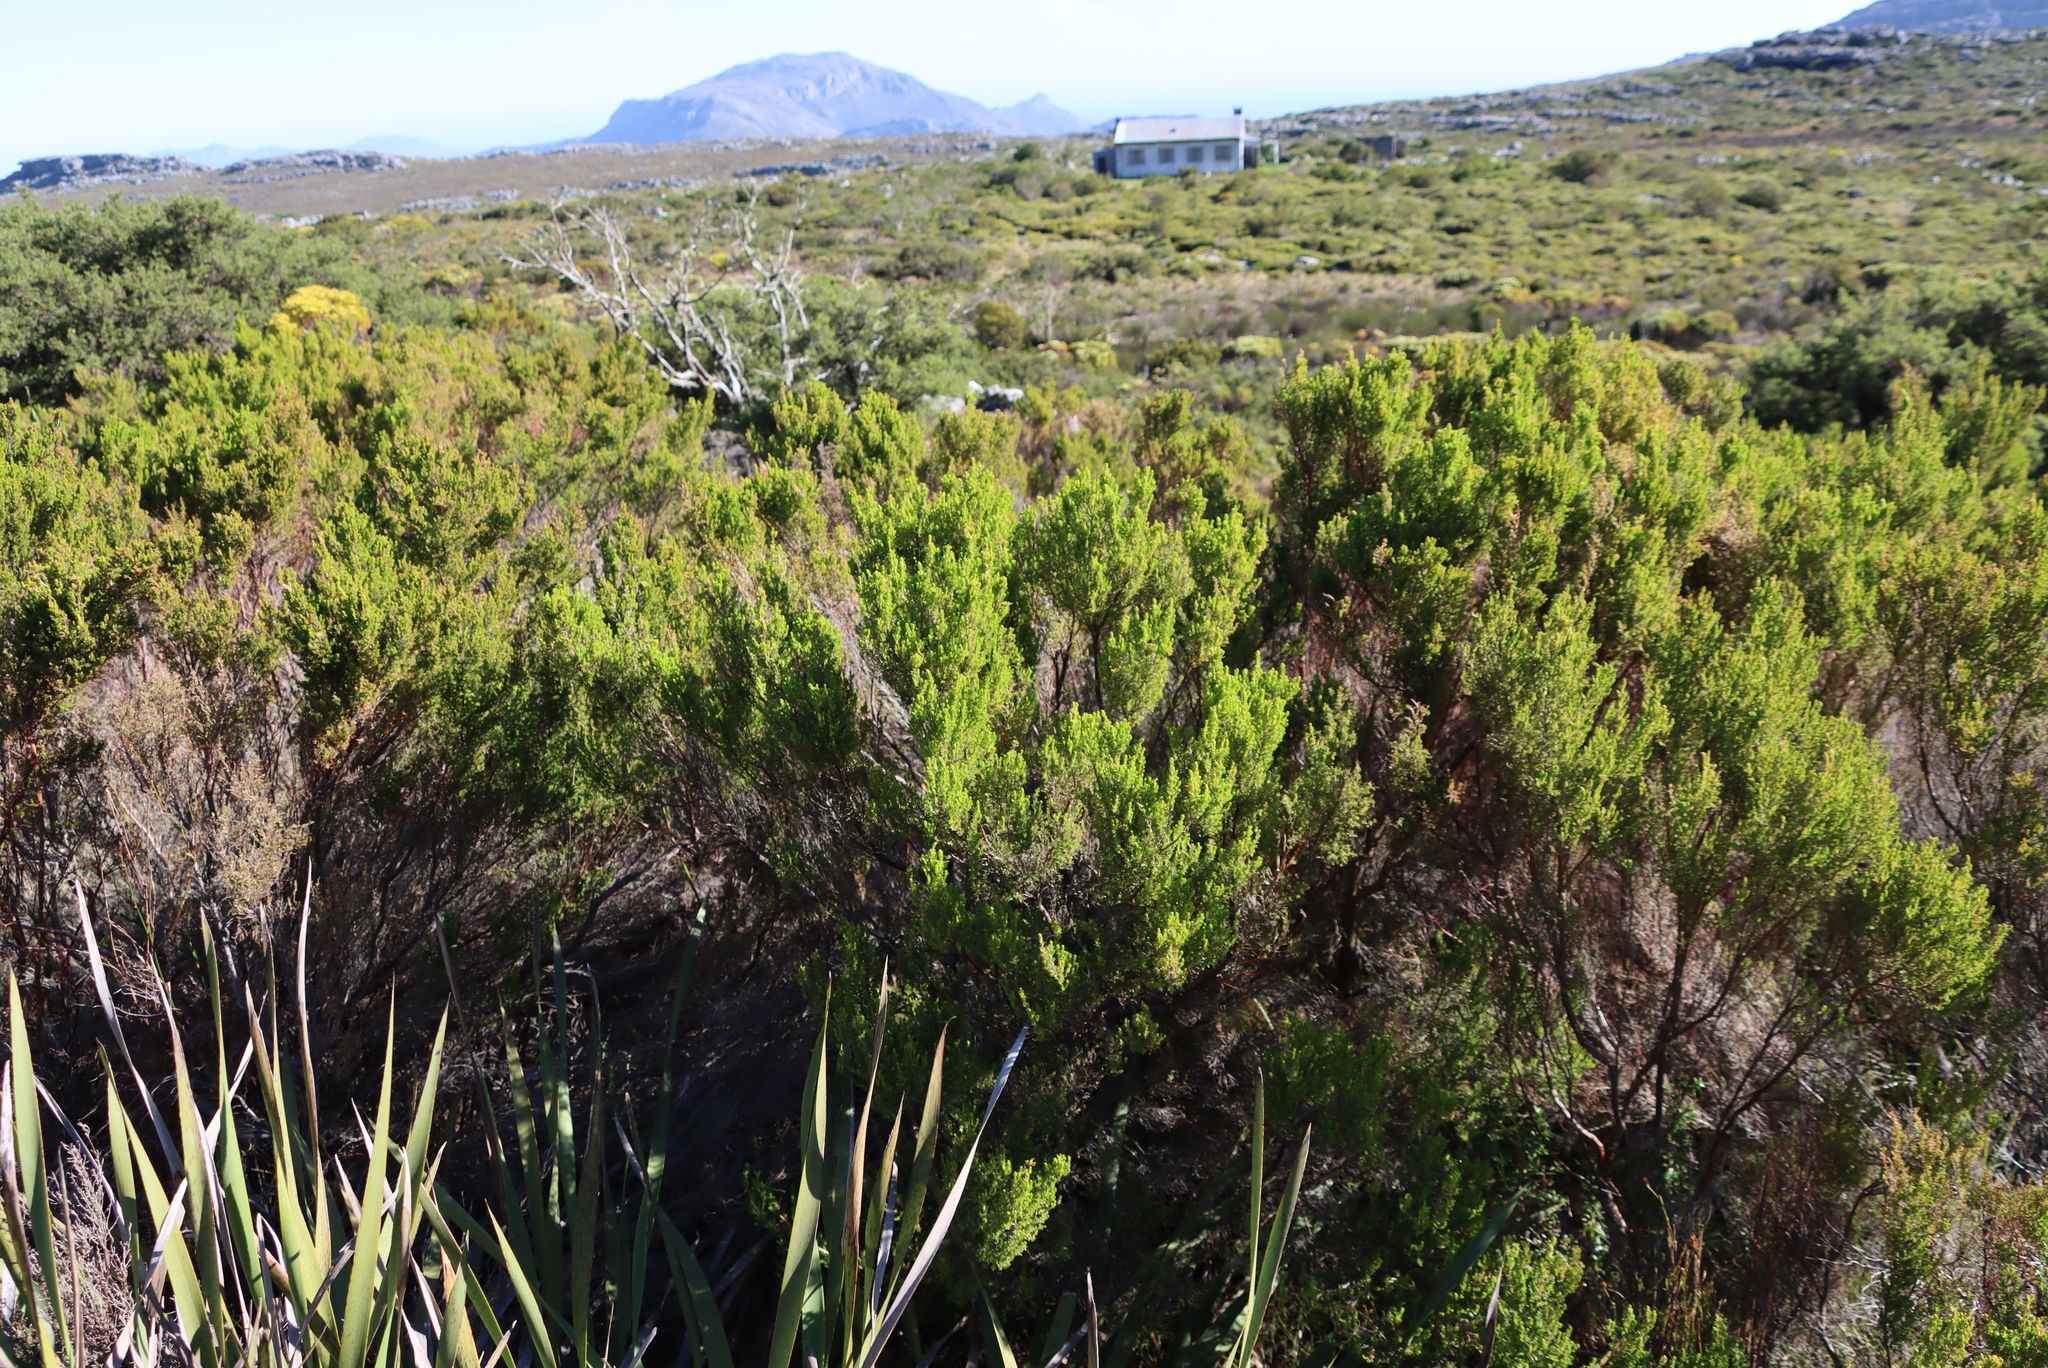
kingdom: Plantae
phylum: Tracheophyta
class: Magnoliopsida
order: Ericales
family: Ericaceae
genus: Erica
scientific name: Erica tristis
